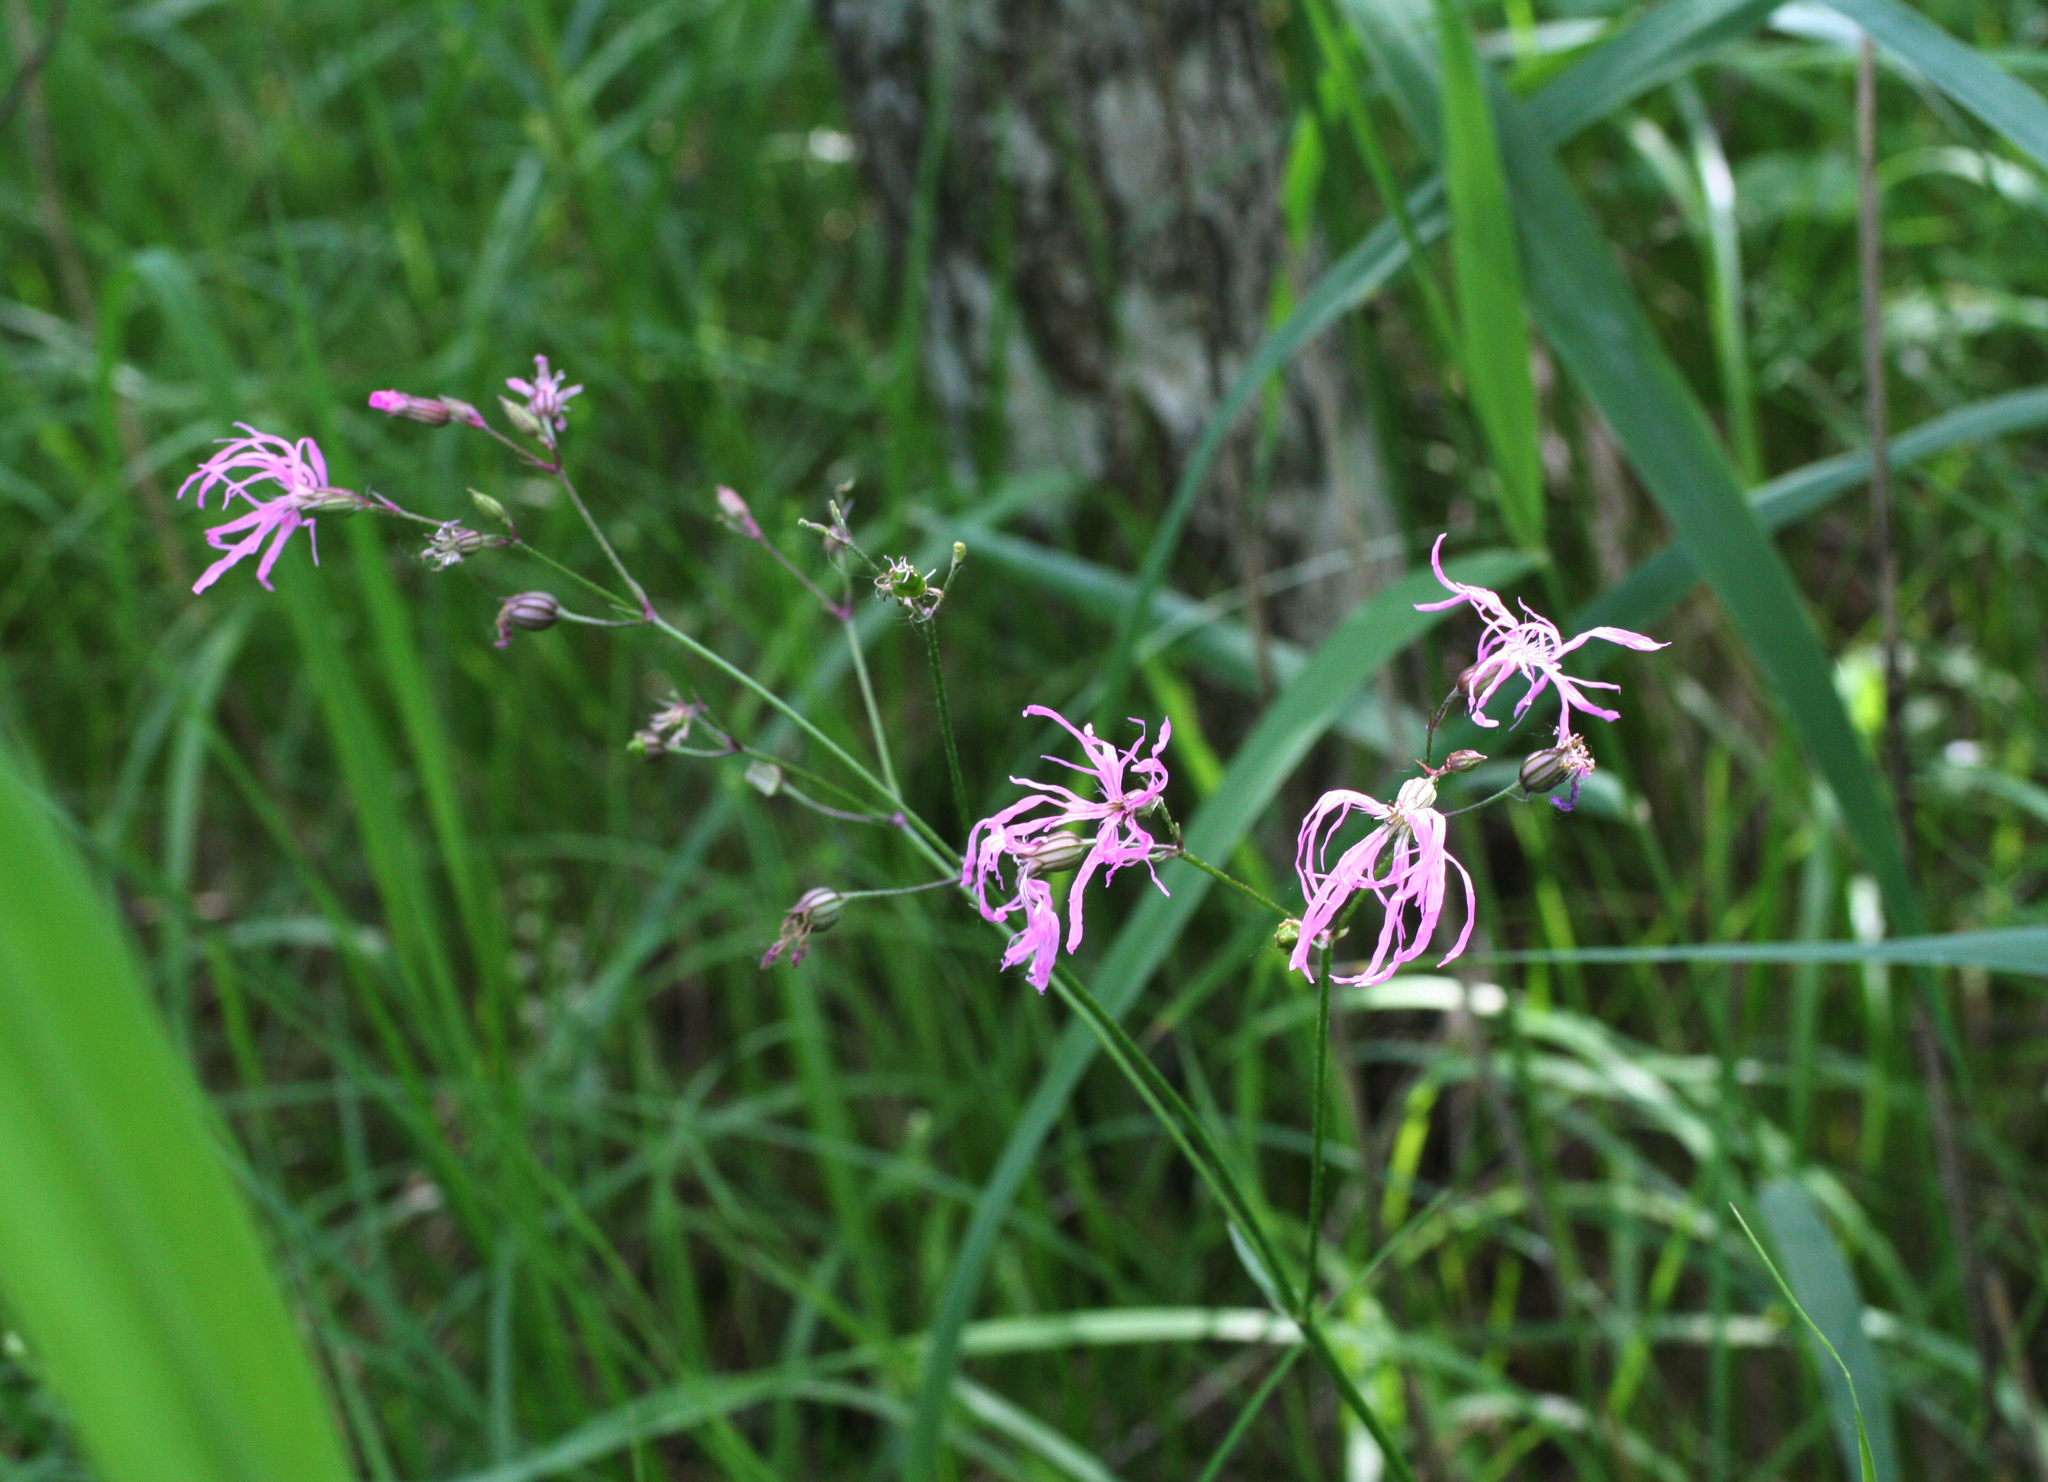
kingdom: Plantae
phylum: Tracheophyta
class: Magnoliopsida
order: Caryophyllales
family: Caryophyllaceae
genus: Silene
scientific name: Silene flos-cuculi
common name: Ragged-robin
